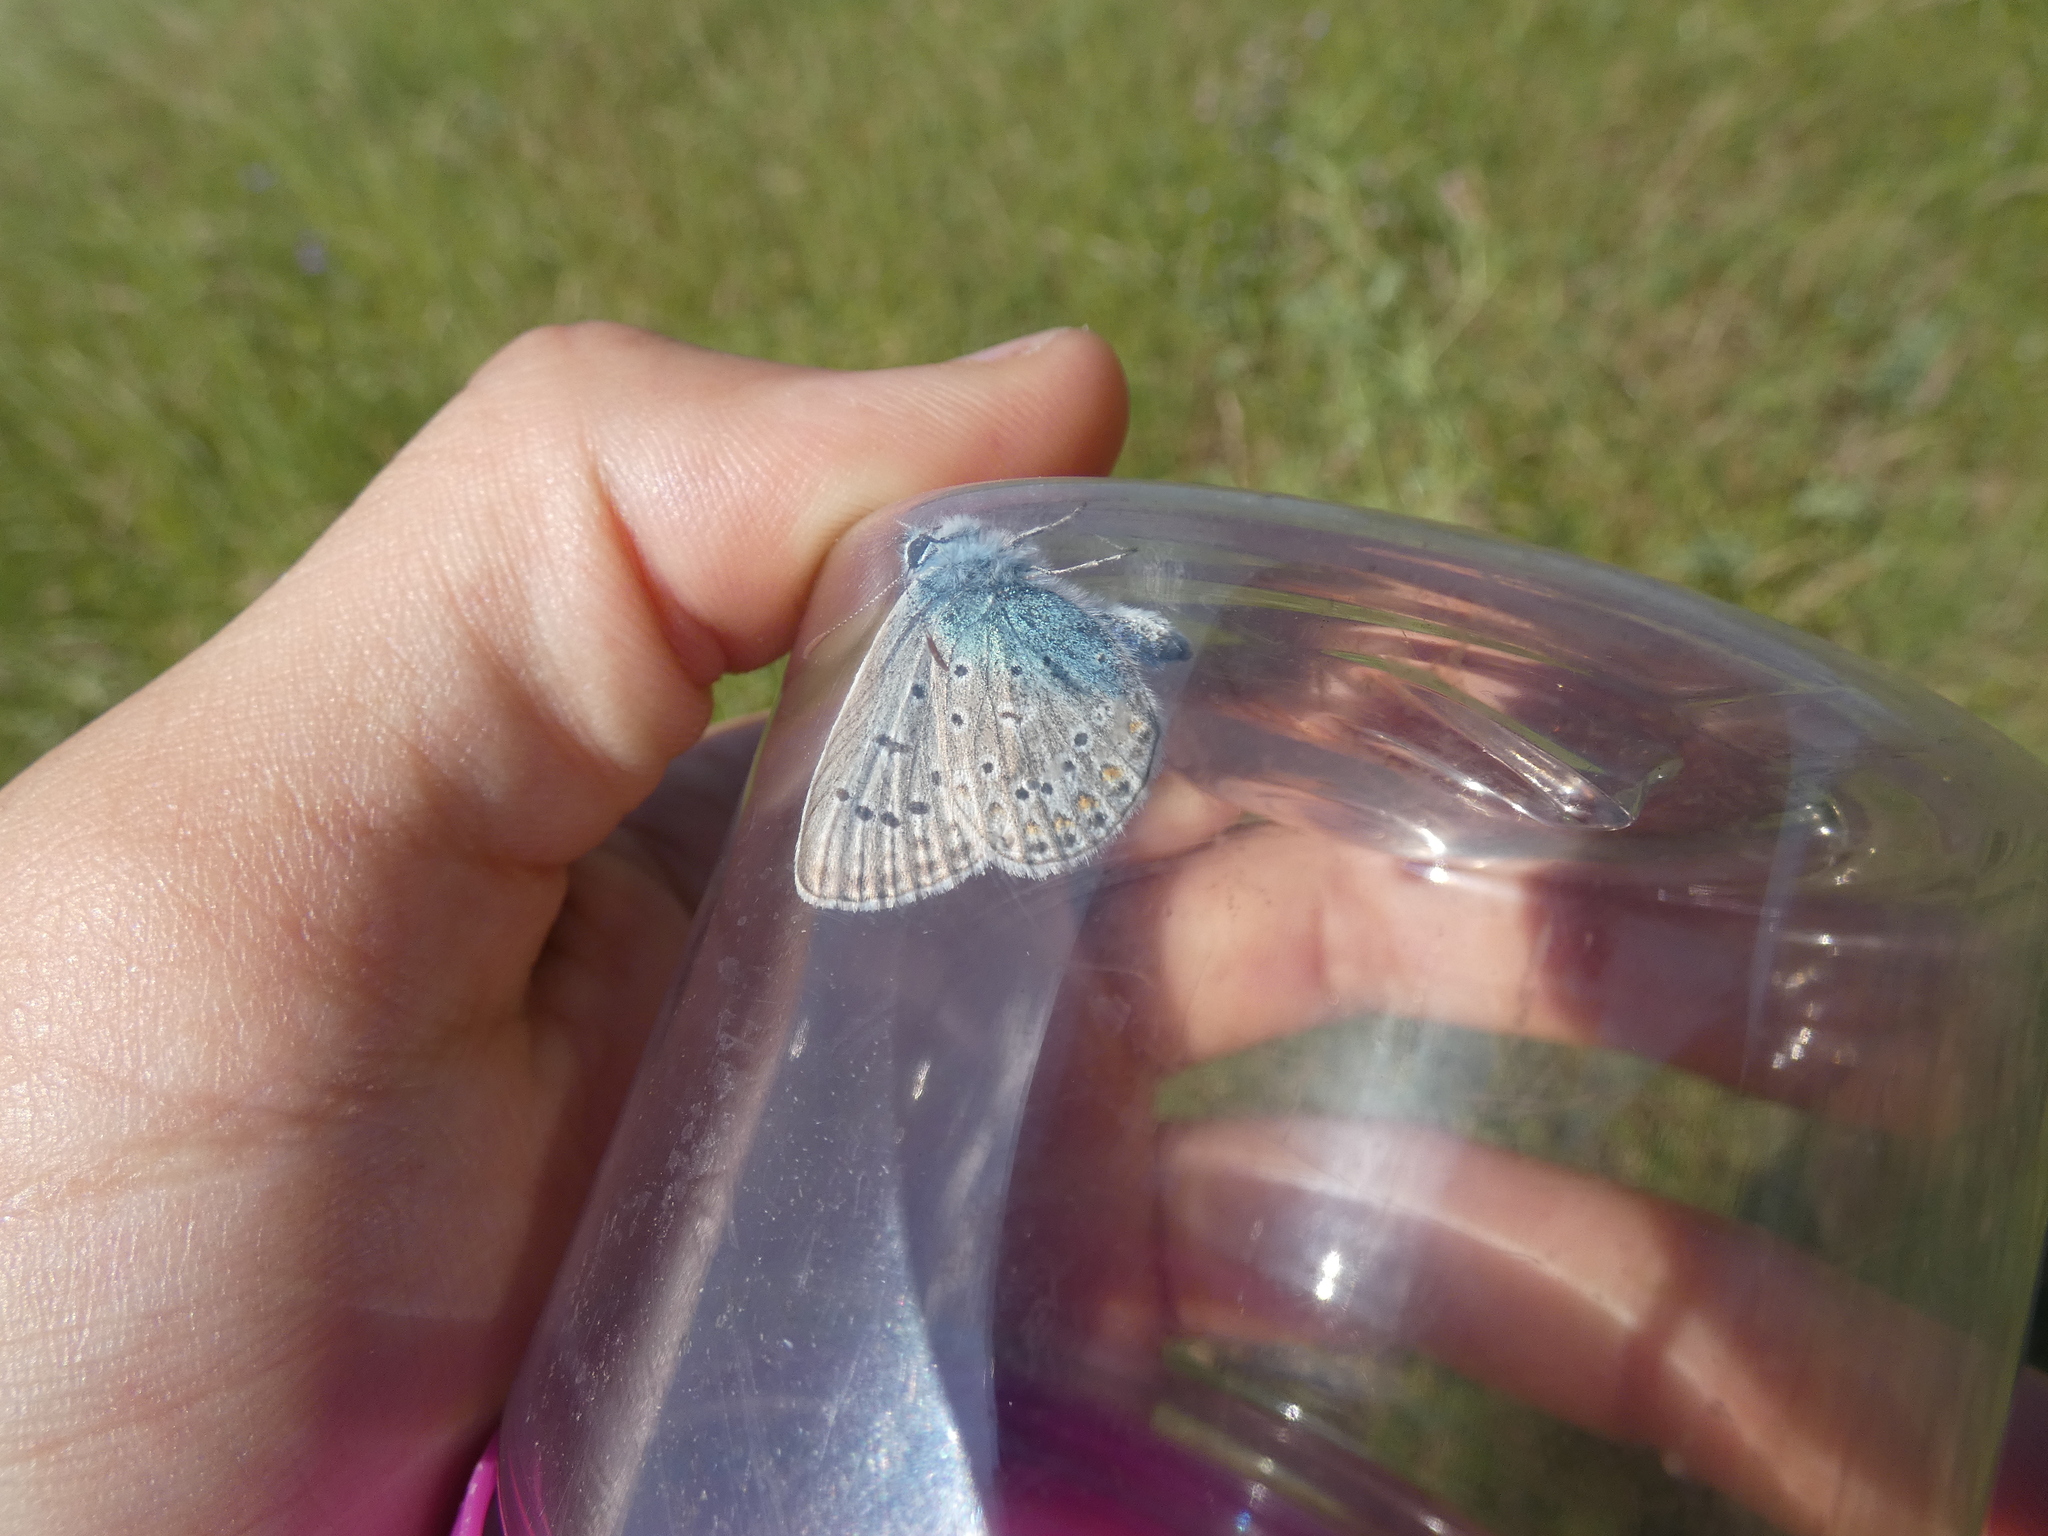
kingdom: Animalia
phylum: Arthropoda
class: Insecta
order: Lepidoptera
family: Lycaenidae
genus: Polyommatus
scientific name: Polyommatus icarus
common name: Common blue
